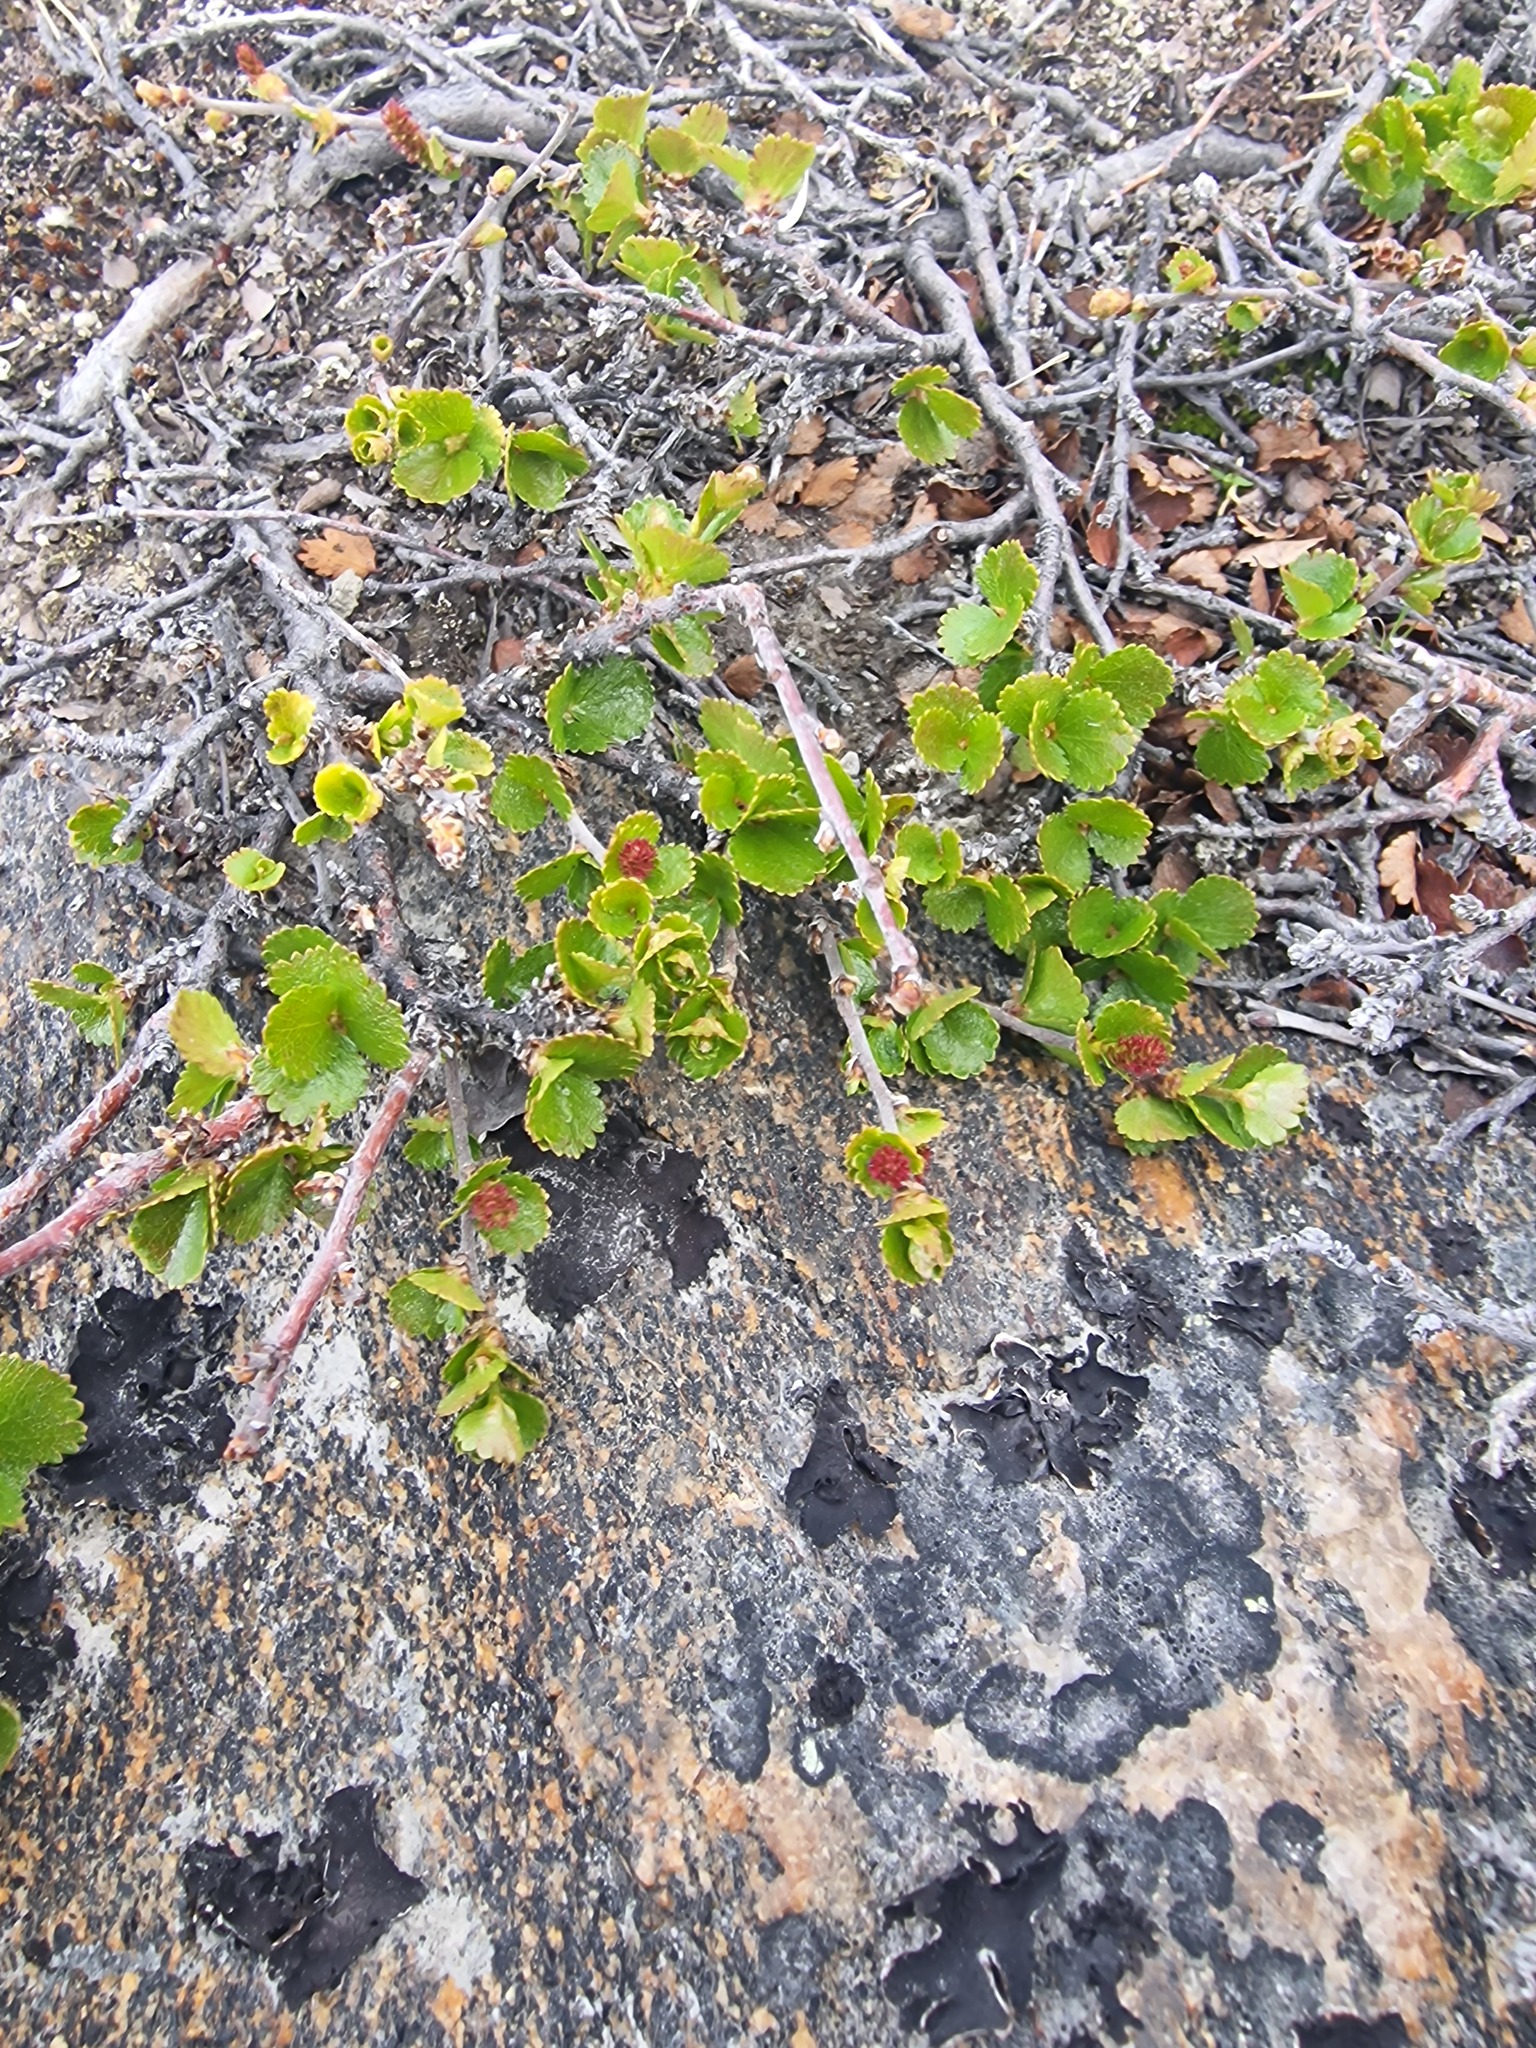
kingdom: Plantae
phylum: Tracheophyta
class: Magnoliopsida
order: Fagales
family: Betulaceae
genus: Betula
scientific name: Betula nana
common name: Arctic dwarf birch
